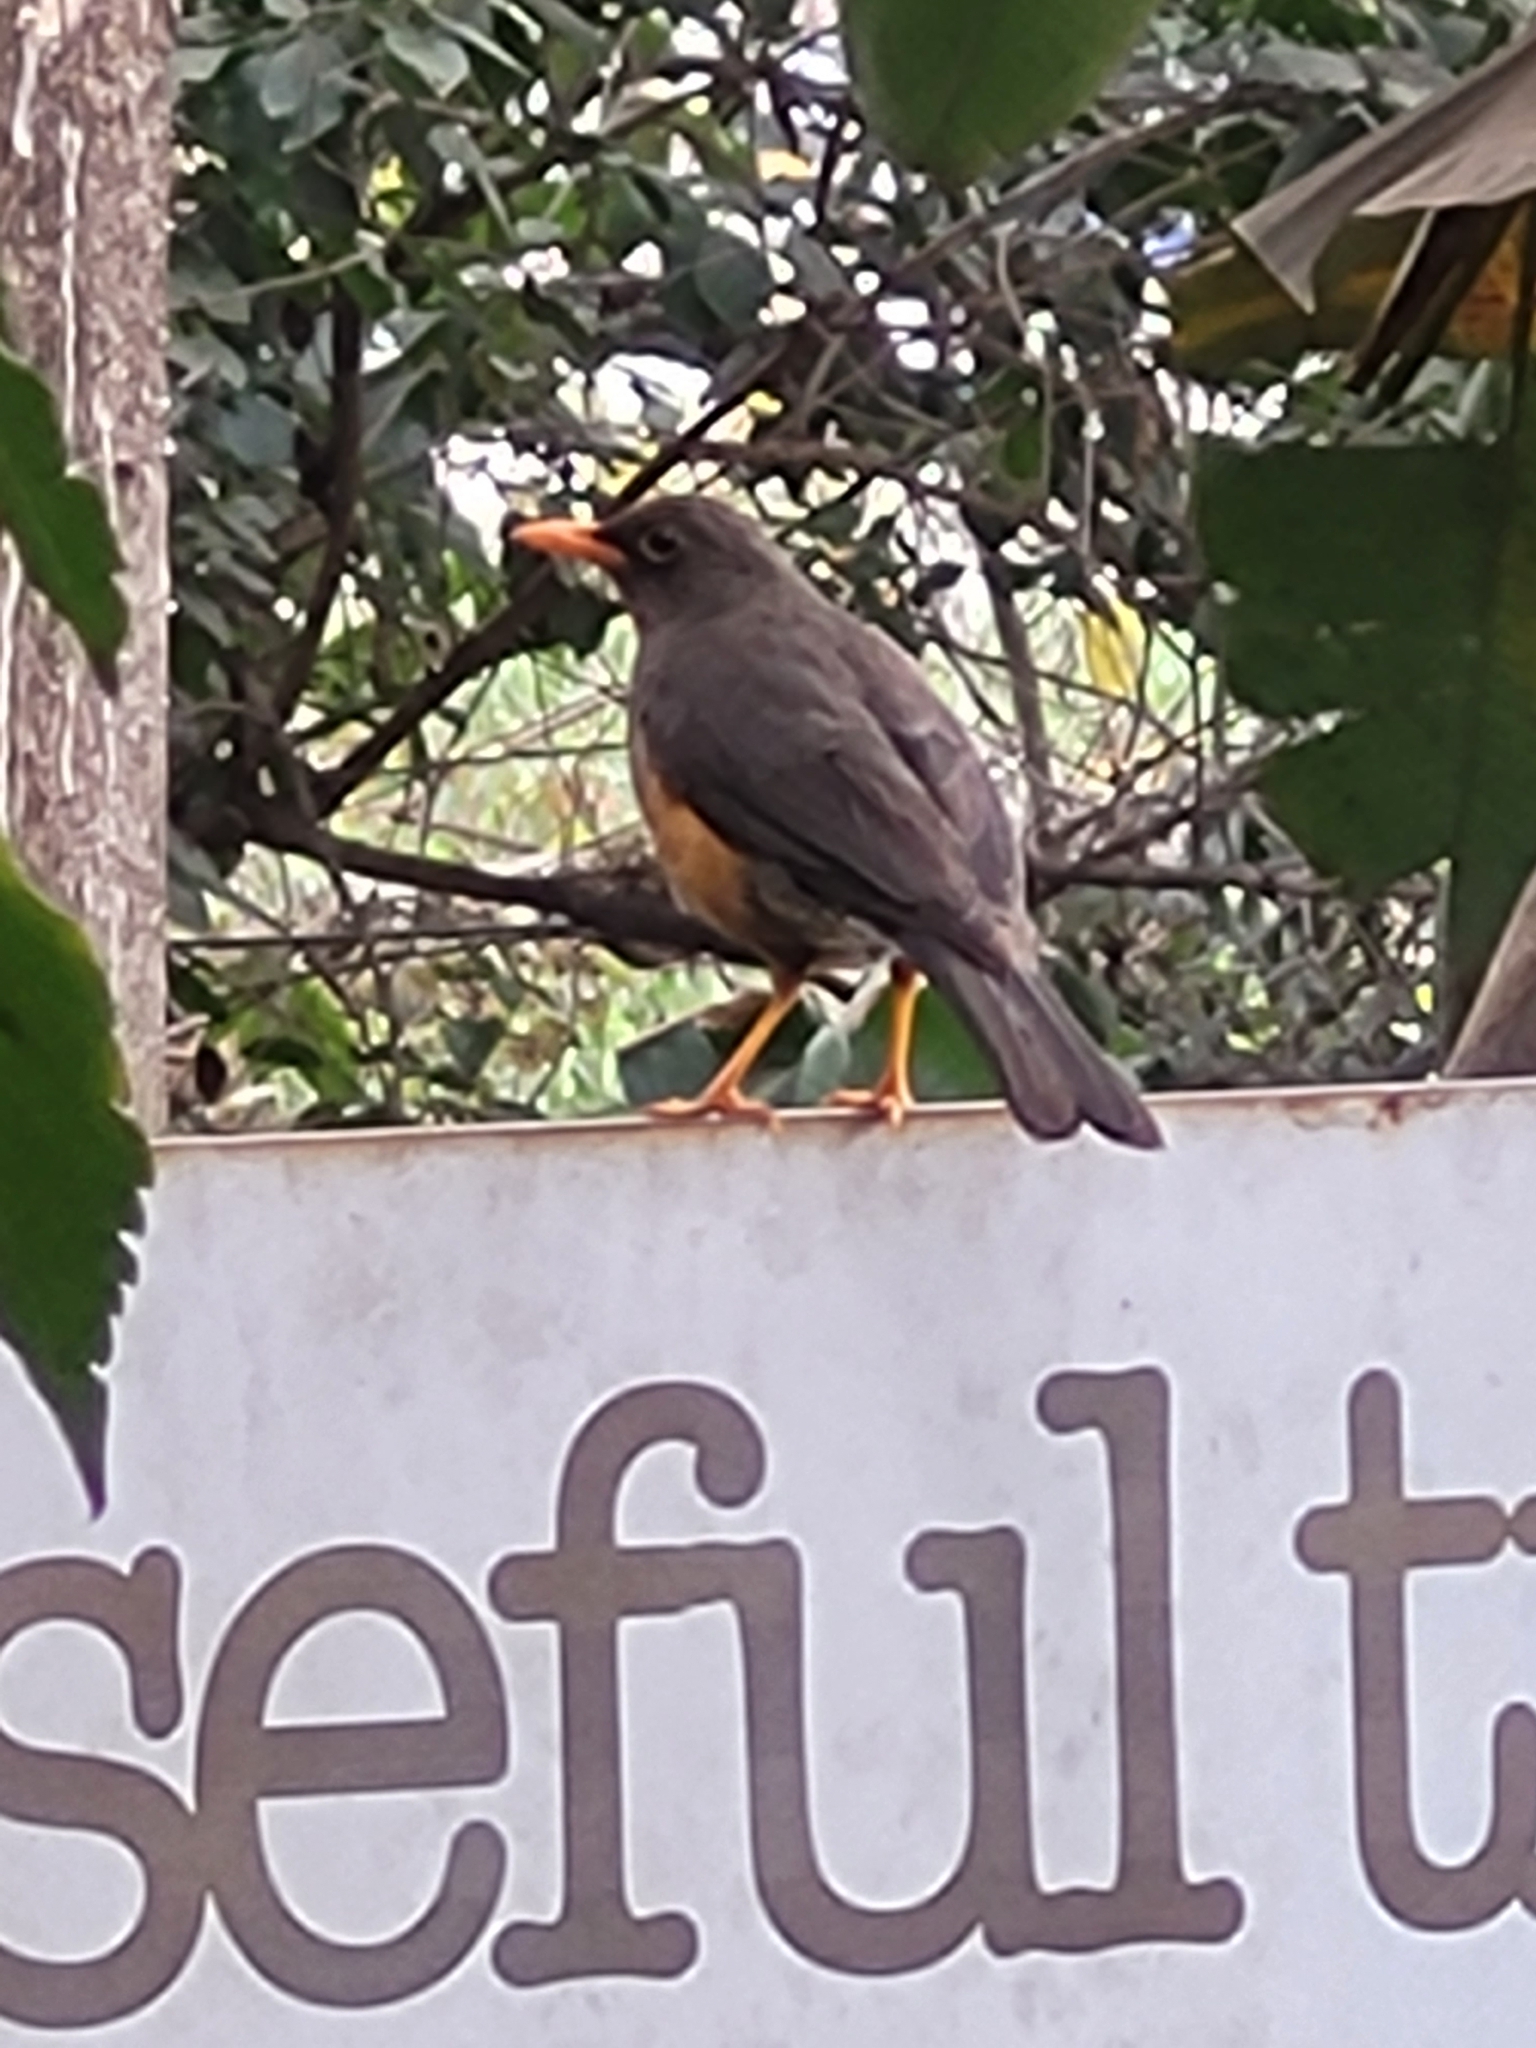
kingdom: Animalia
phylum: Chordata
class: Aves
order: Passeriformes
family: Turdidae
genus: Turdus
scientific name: Turdus abyssinicus
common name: Abyssinian thrush
